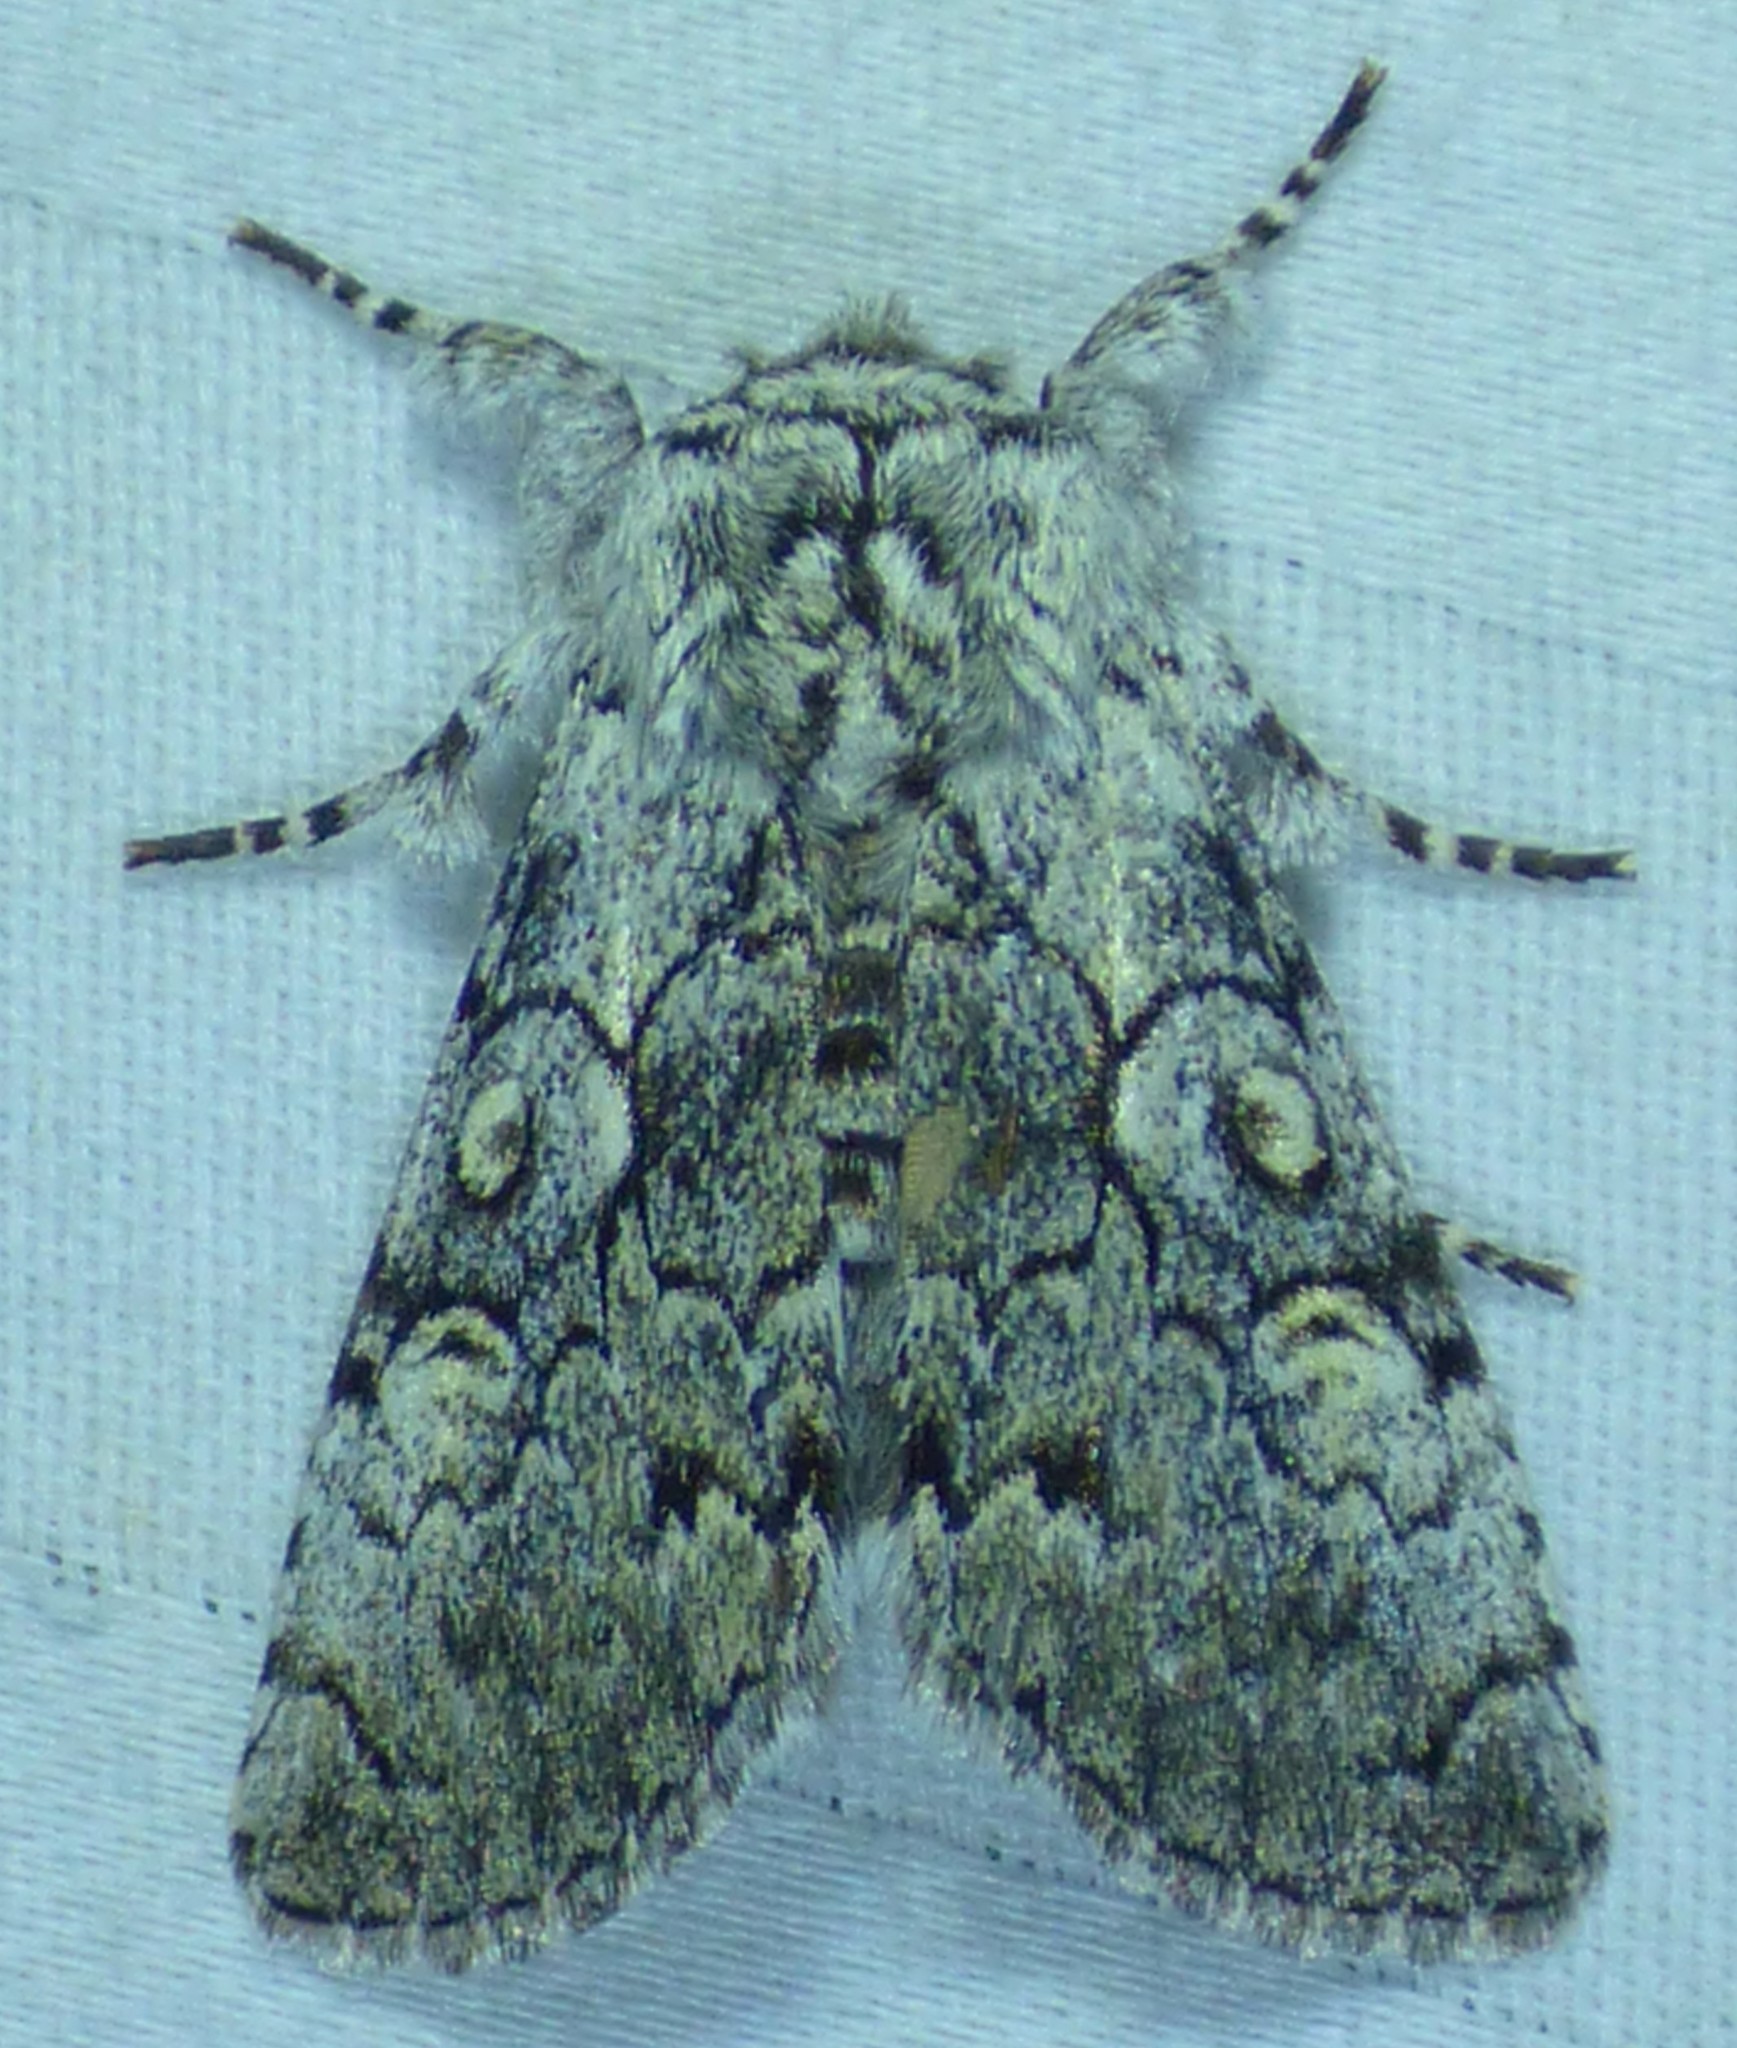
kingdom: Animalia
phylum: Arthropoda
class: Insecta
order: Lepidoptera
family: Noctuidae
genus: Charadra
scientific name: Charadra deridens
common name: Marbled tuffet
